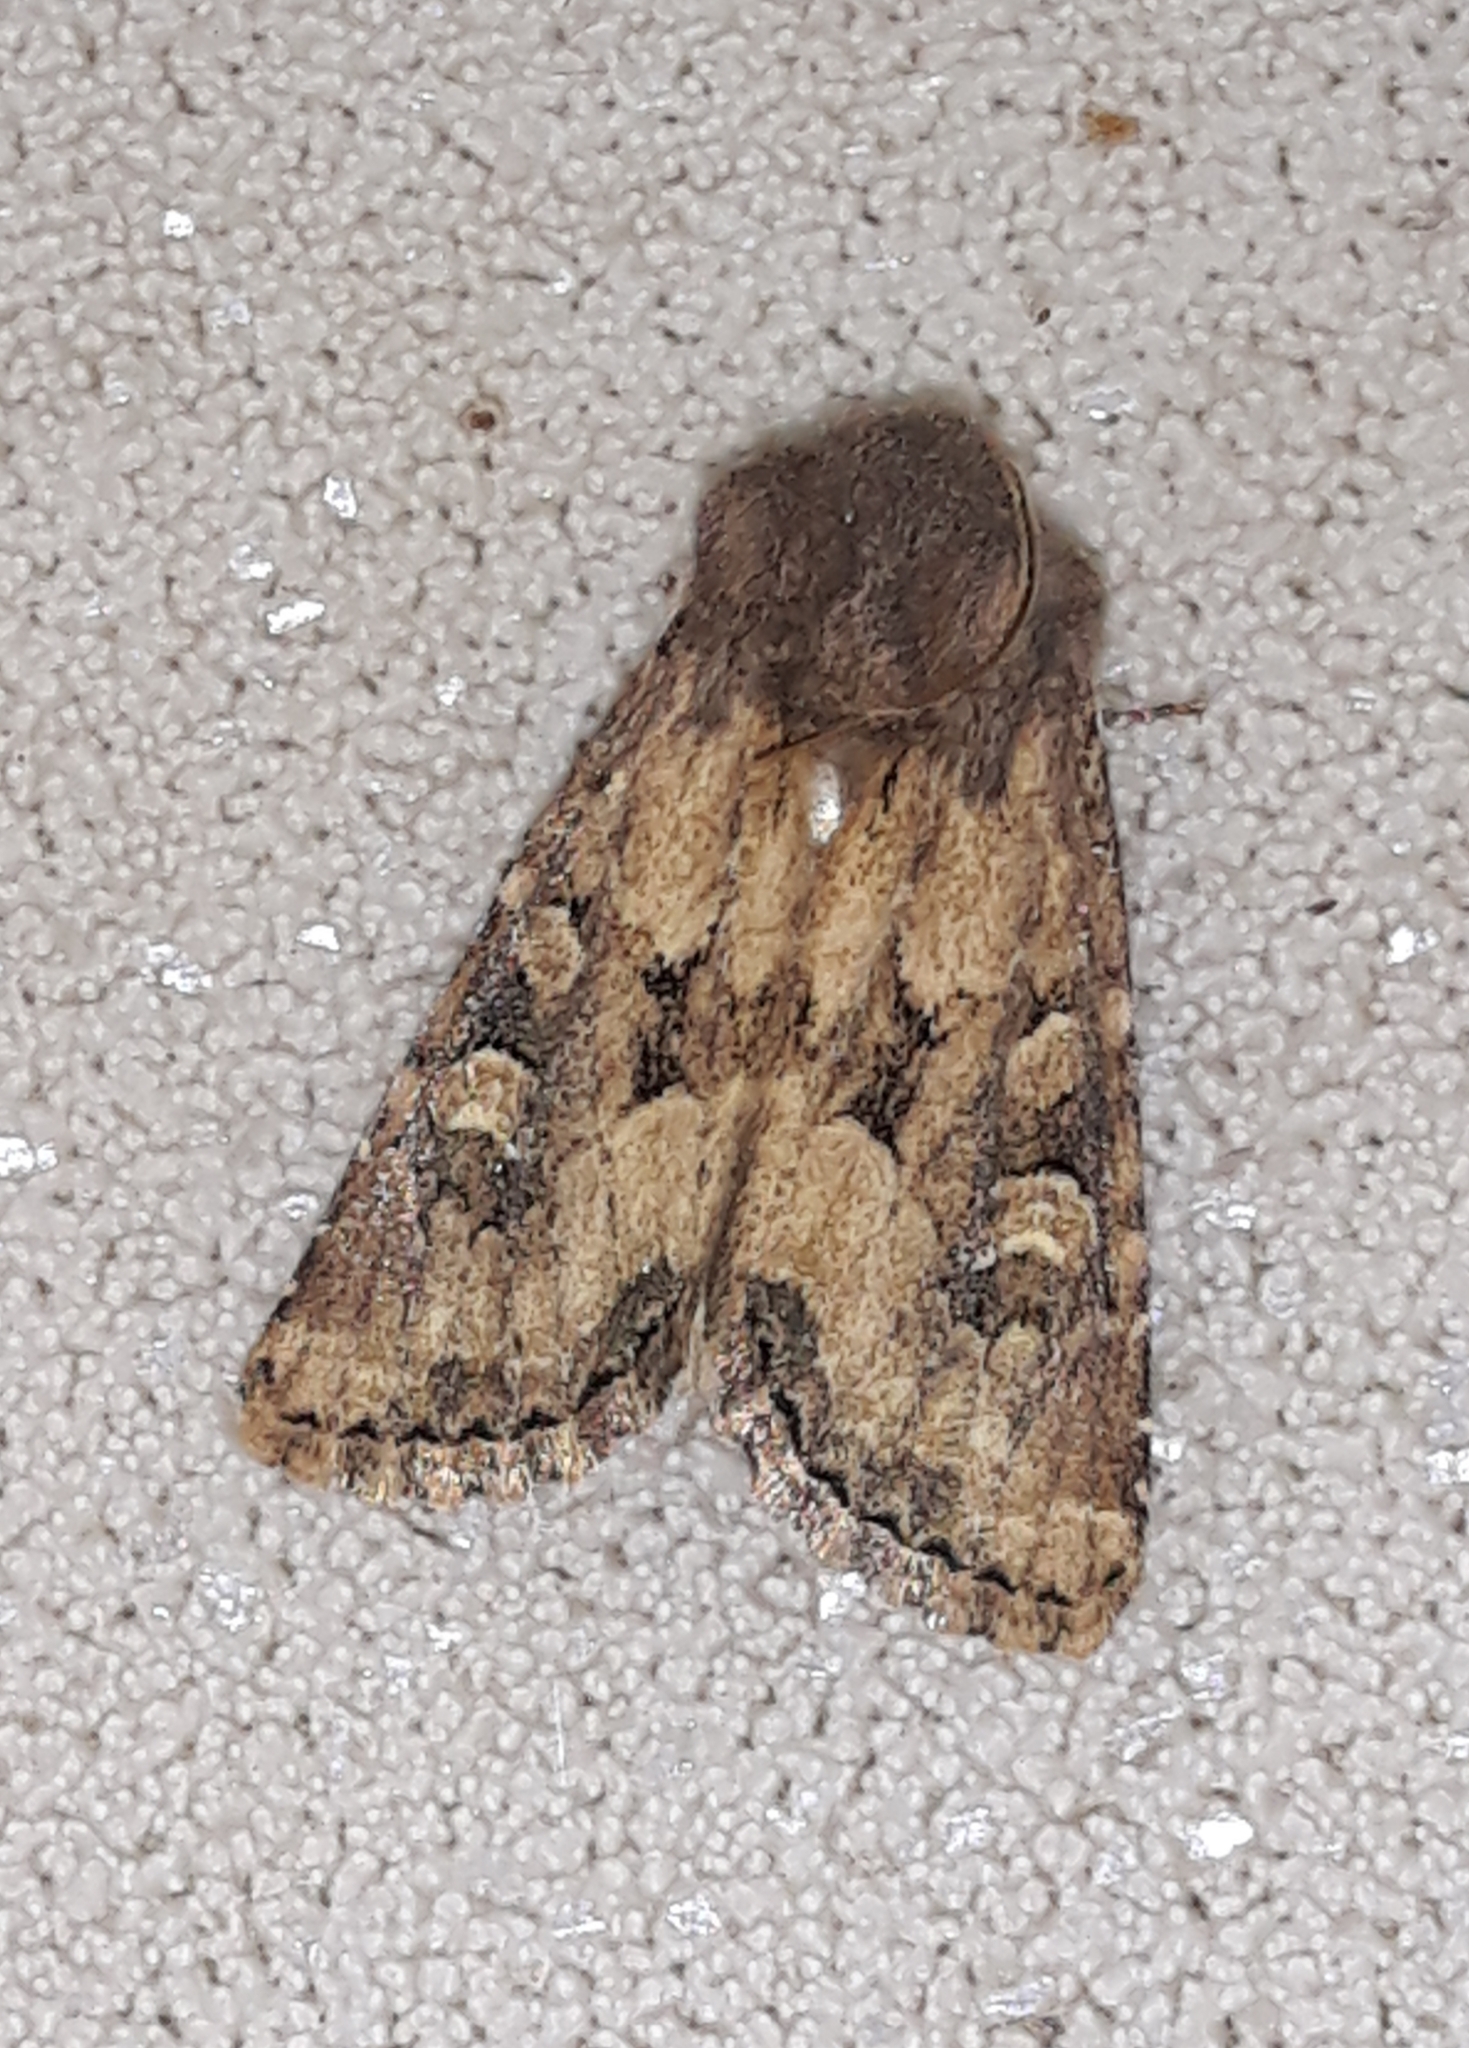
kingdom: Animalia
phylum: Arthropoda
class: Insecta
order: Lepidoptera
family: Noctuidae
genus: Luperina
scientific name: Luperina testacea
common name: Flounced rustic
